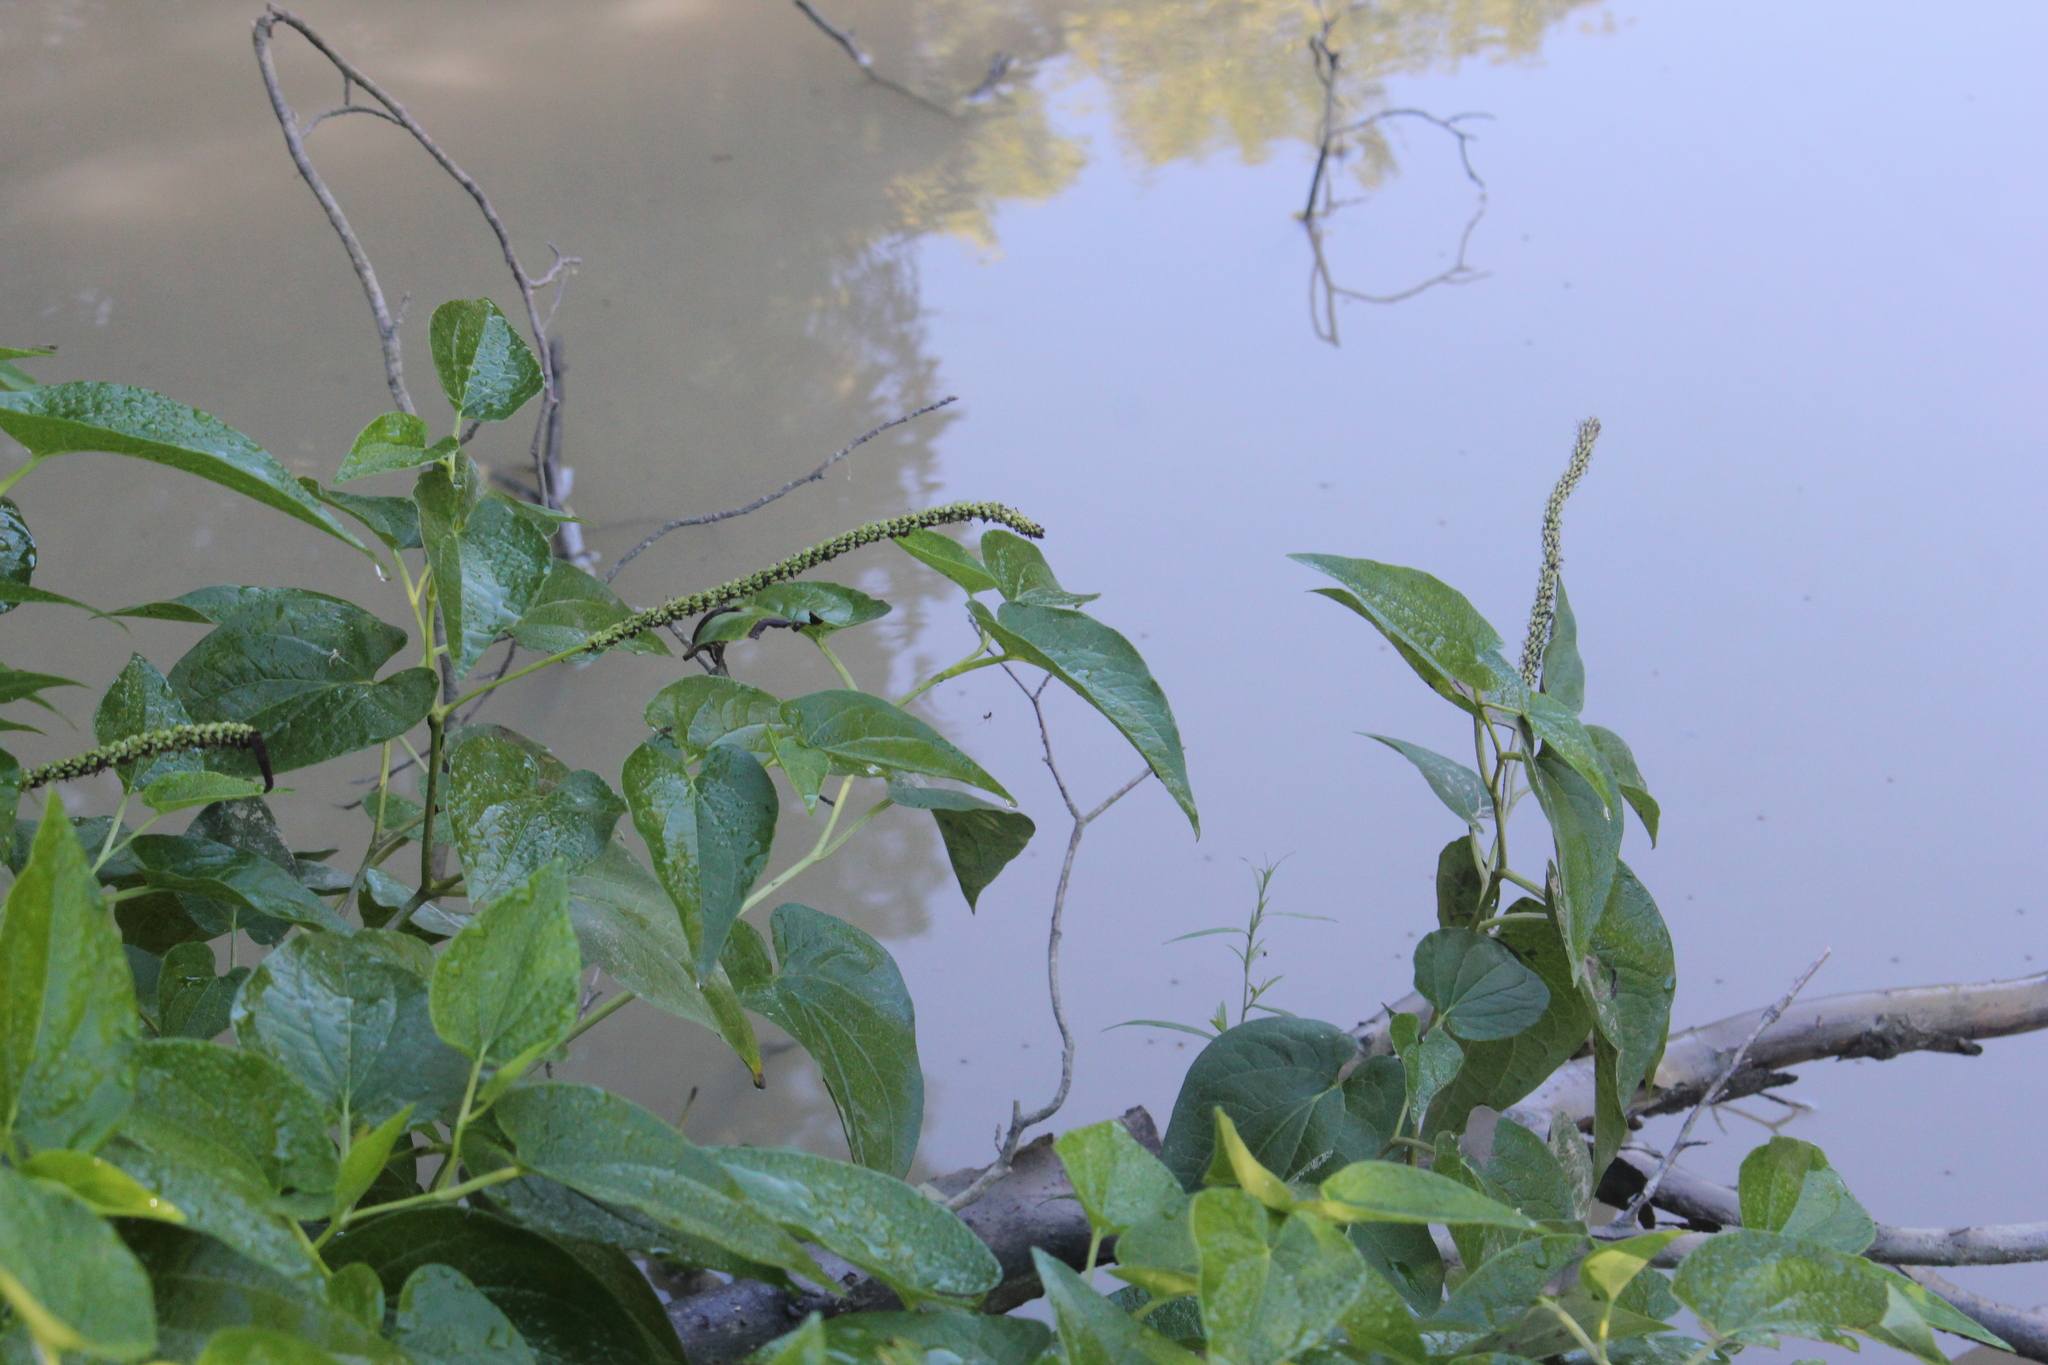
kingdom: Plantae
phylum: Tracheophyta
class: Magnoliopsida
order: Piperales
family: Saururaceae
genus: Saururus
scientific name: Saururus cernuus
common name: Lizard's-tail
